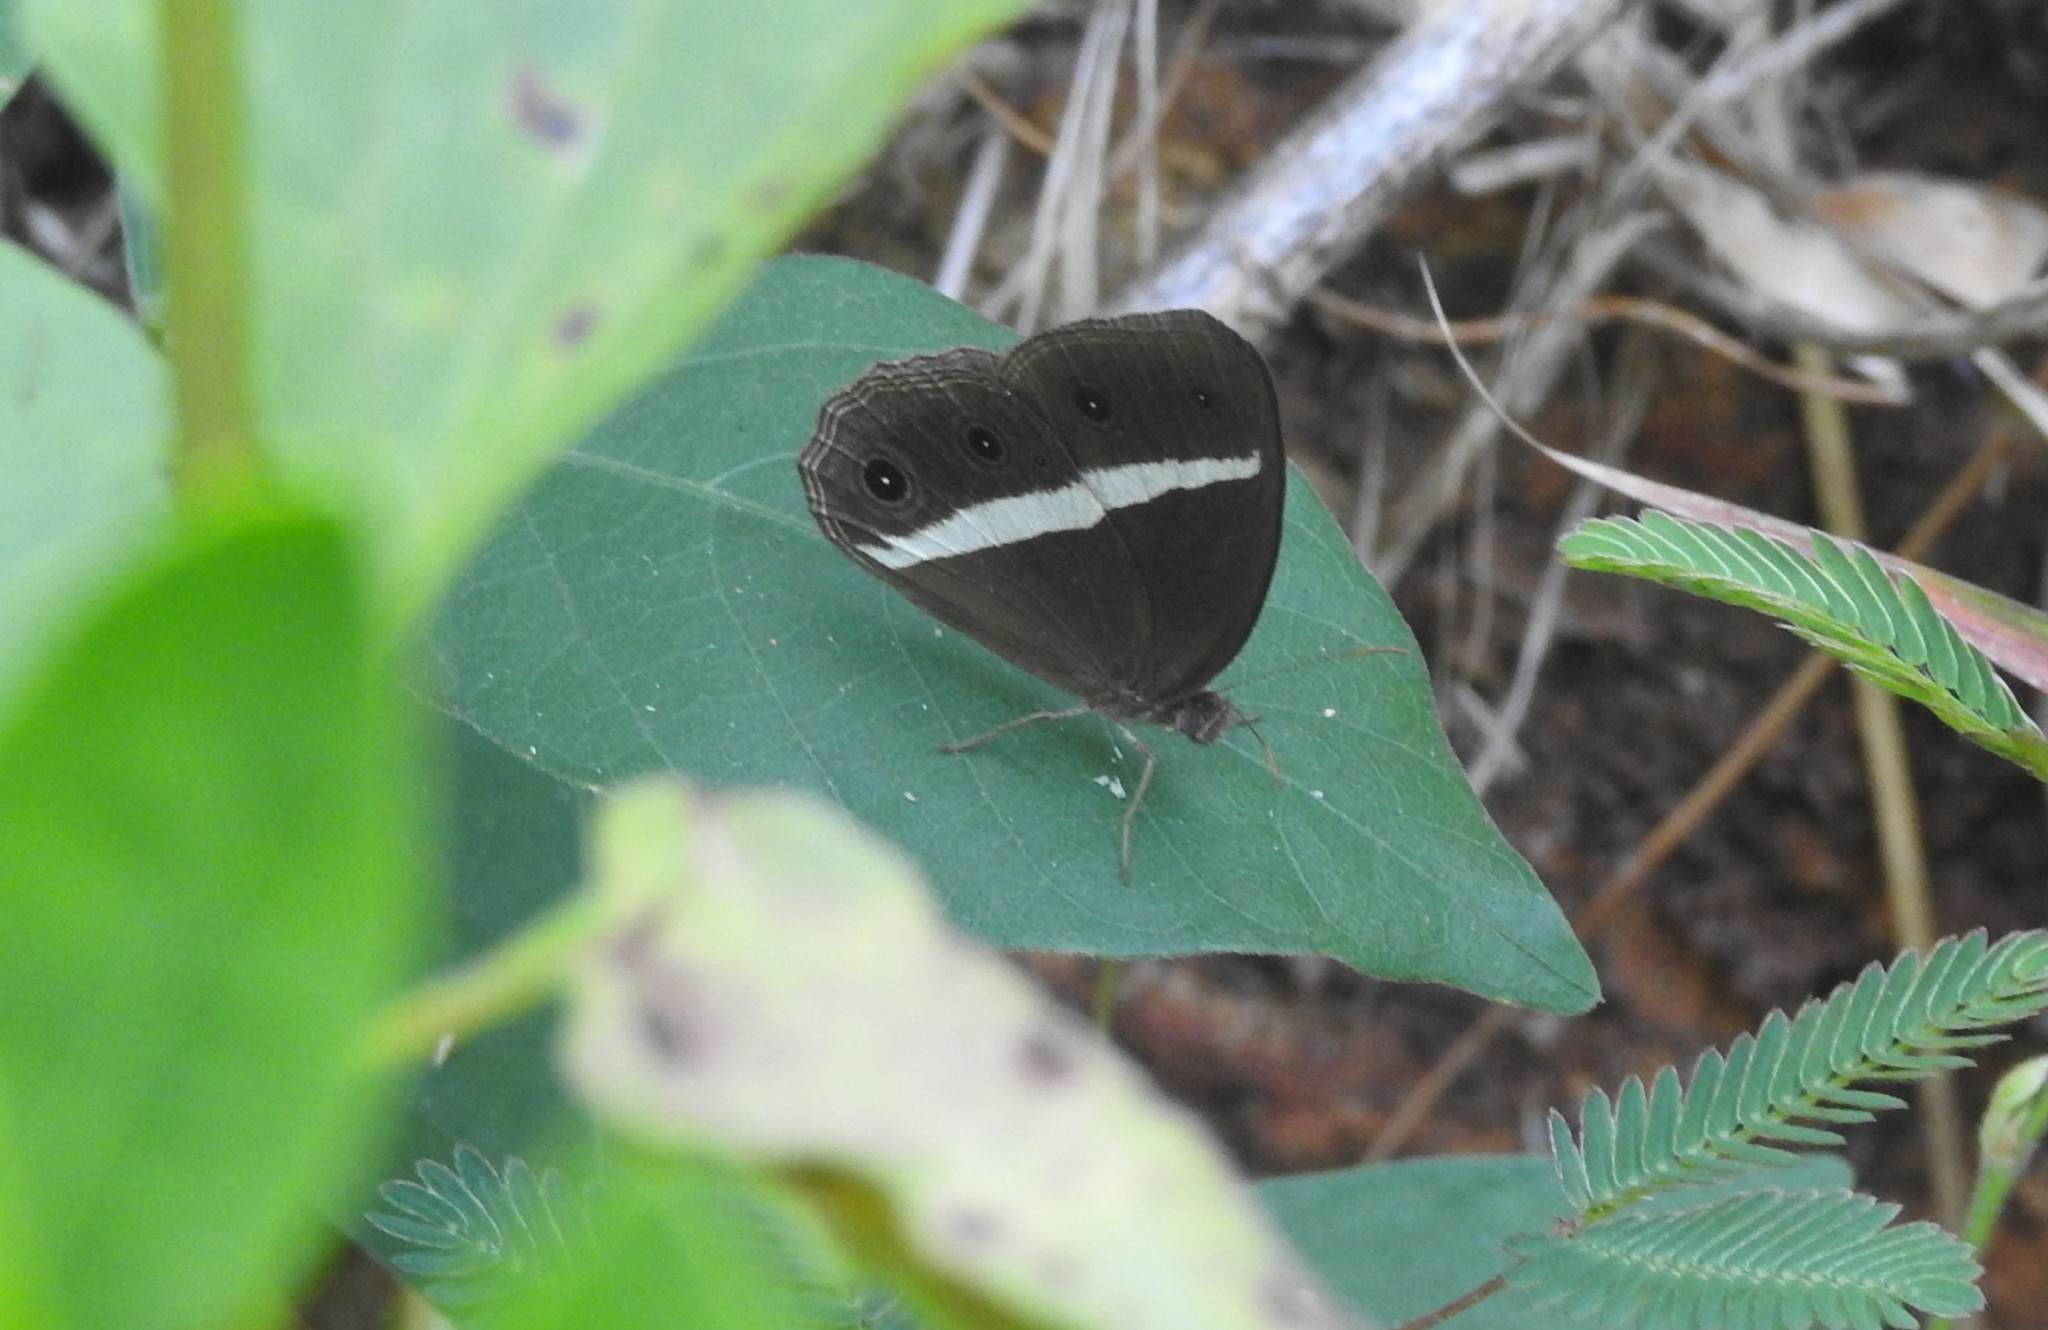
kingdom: Animalia
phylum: Arthropoda
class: Insecta
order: Lepidoptera
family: Nymphalidae
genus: Orsotriaena
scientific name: Orsotriaena medus
